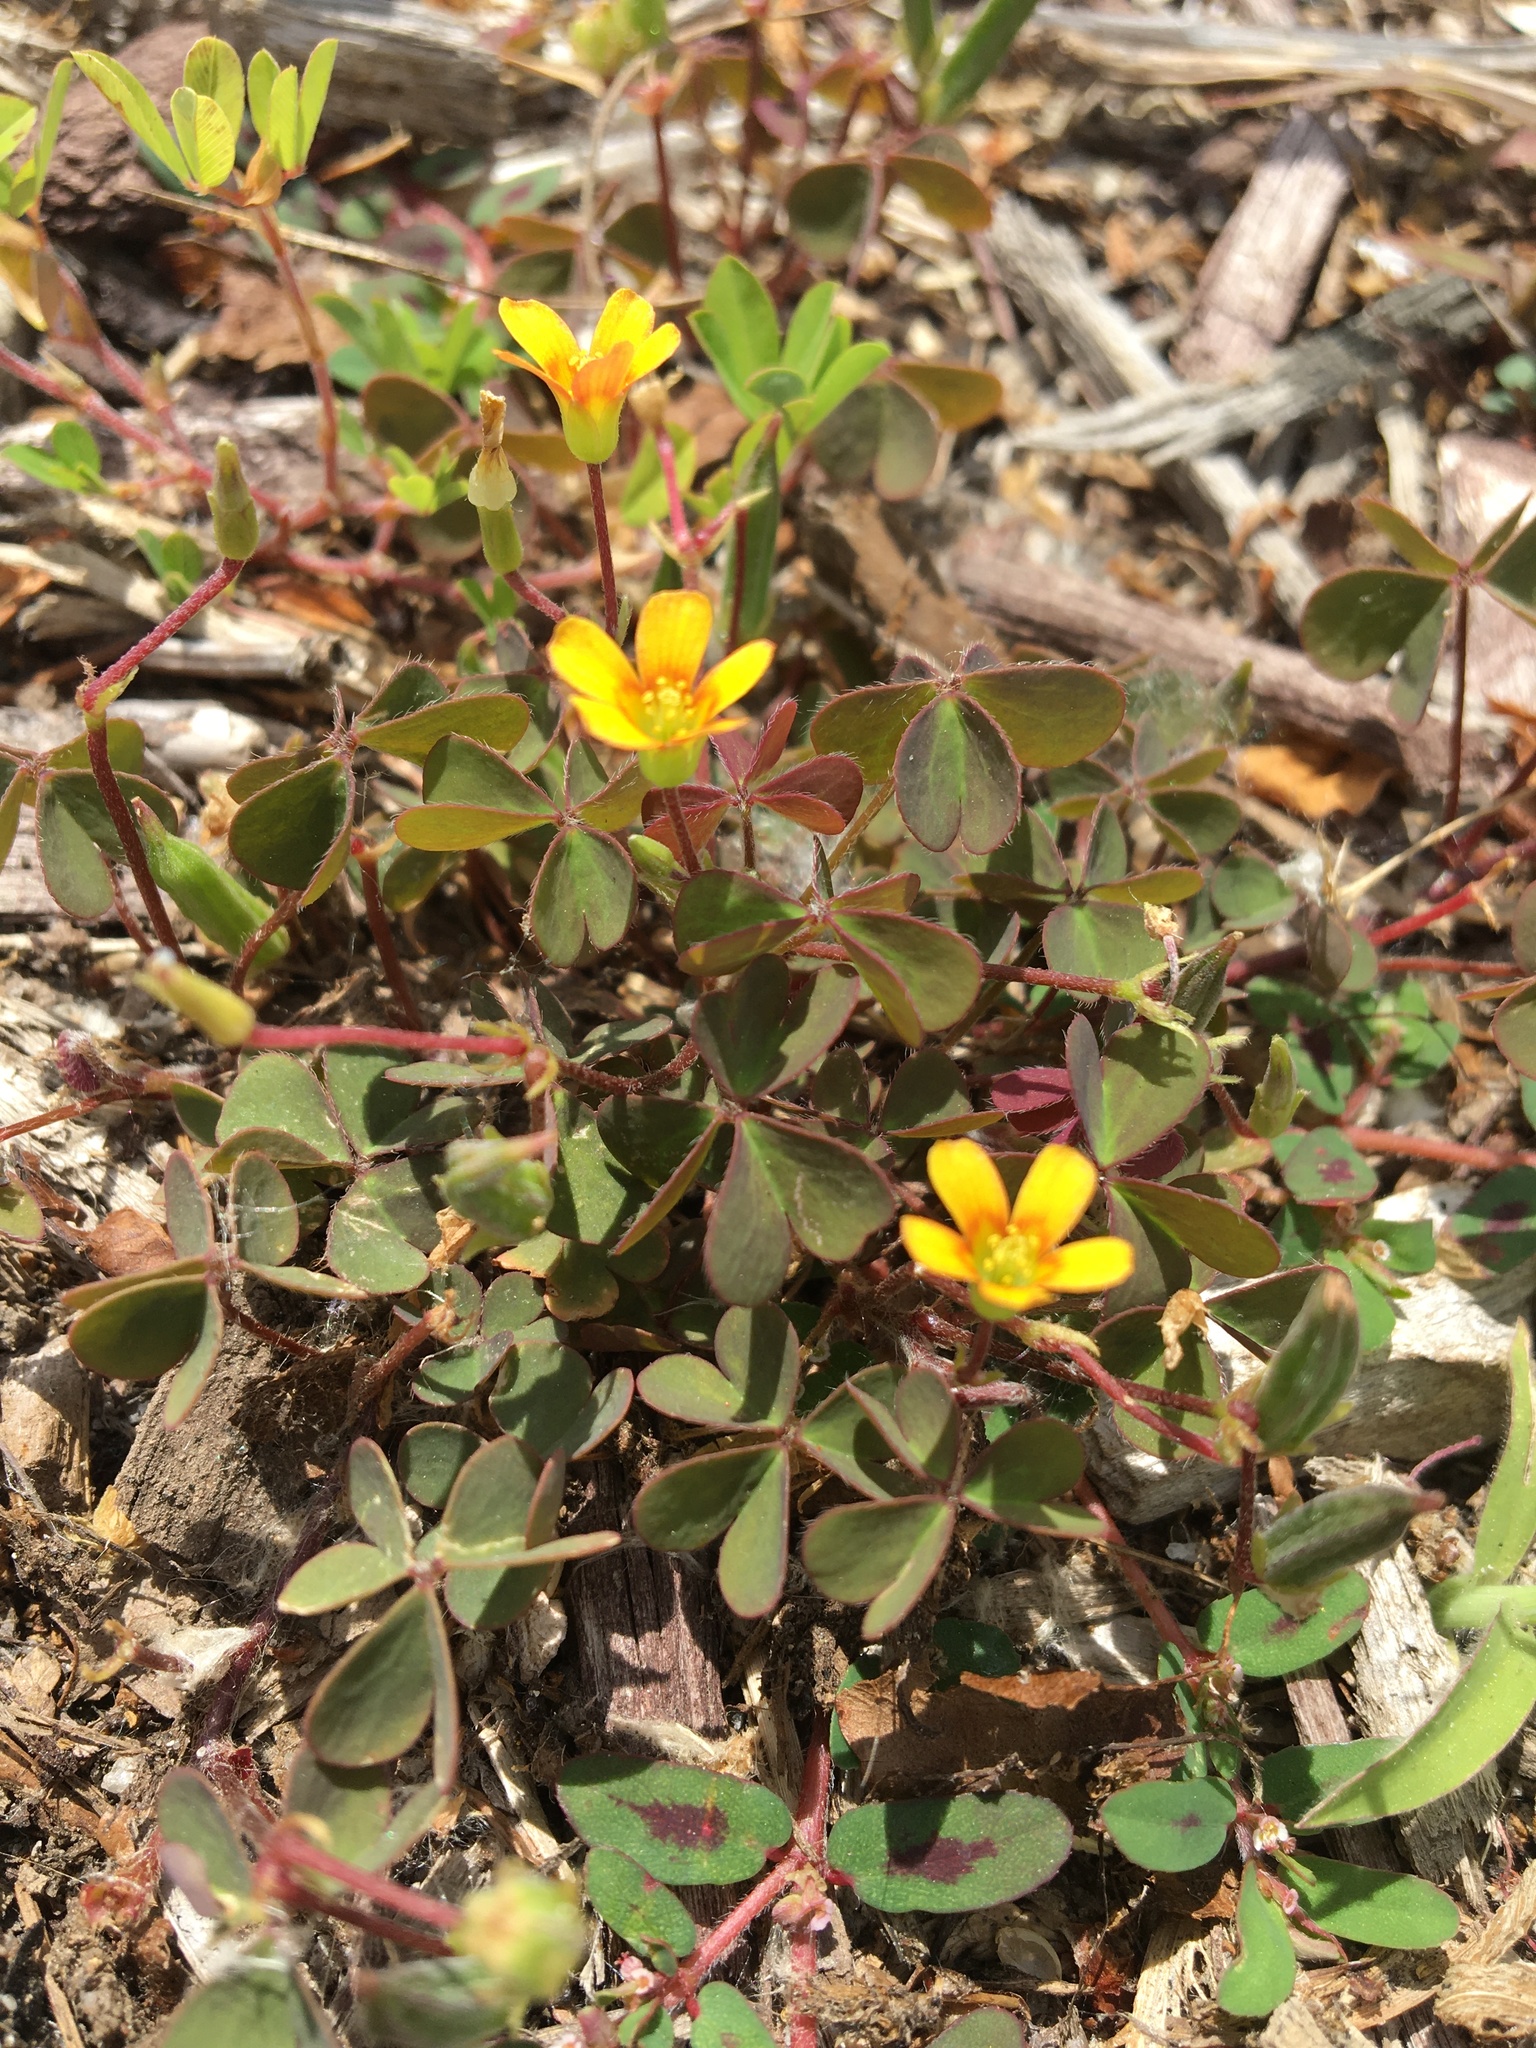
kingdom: Plantae
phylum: Tracheophyta
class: Magnoliopsida
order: Oxalidales
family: Oxalidaceae
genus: Oxalis
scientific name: Oxalis corniculata
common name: Procumbent yellow-sorrel
